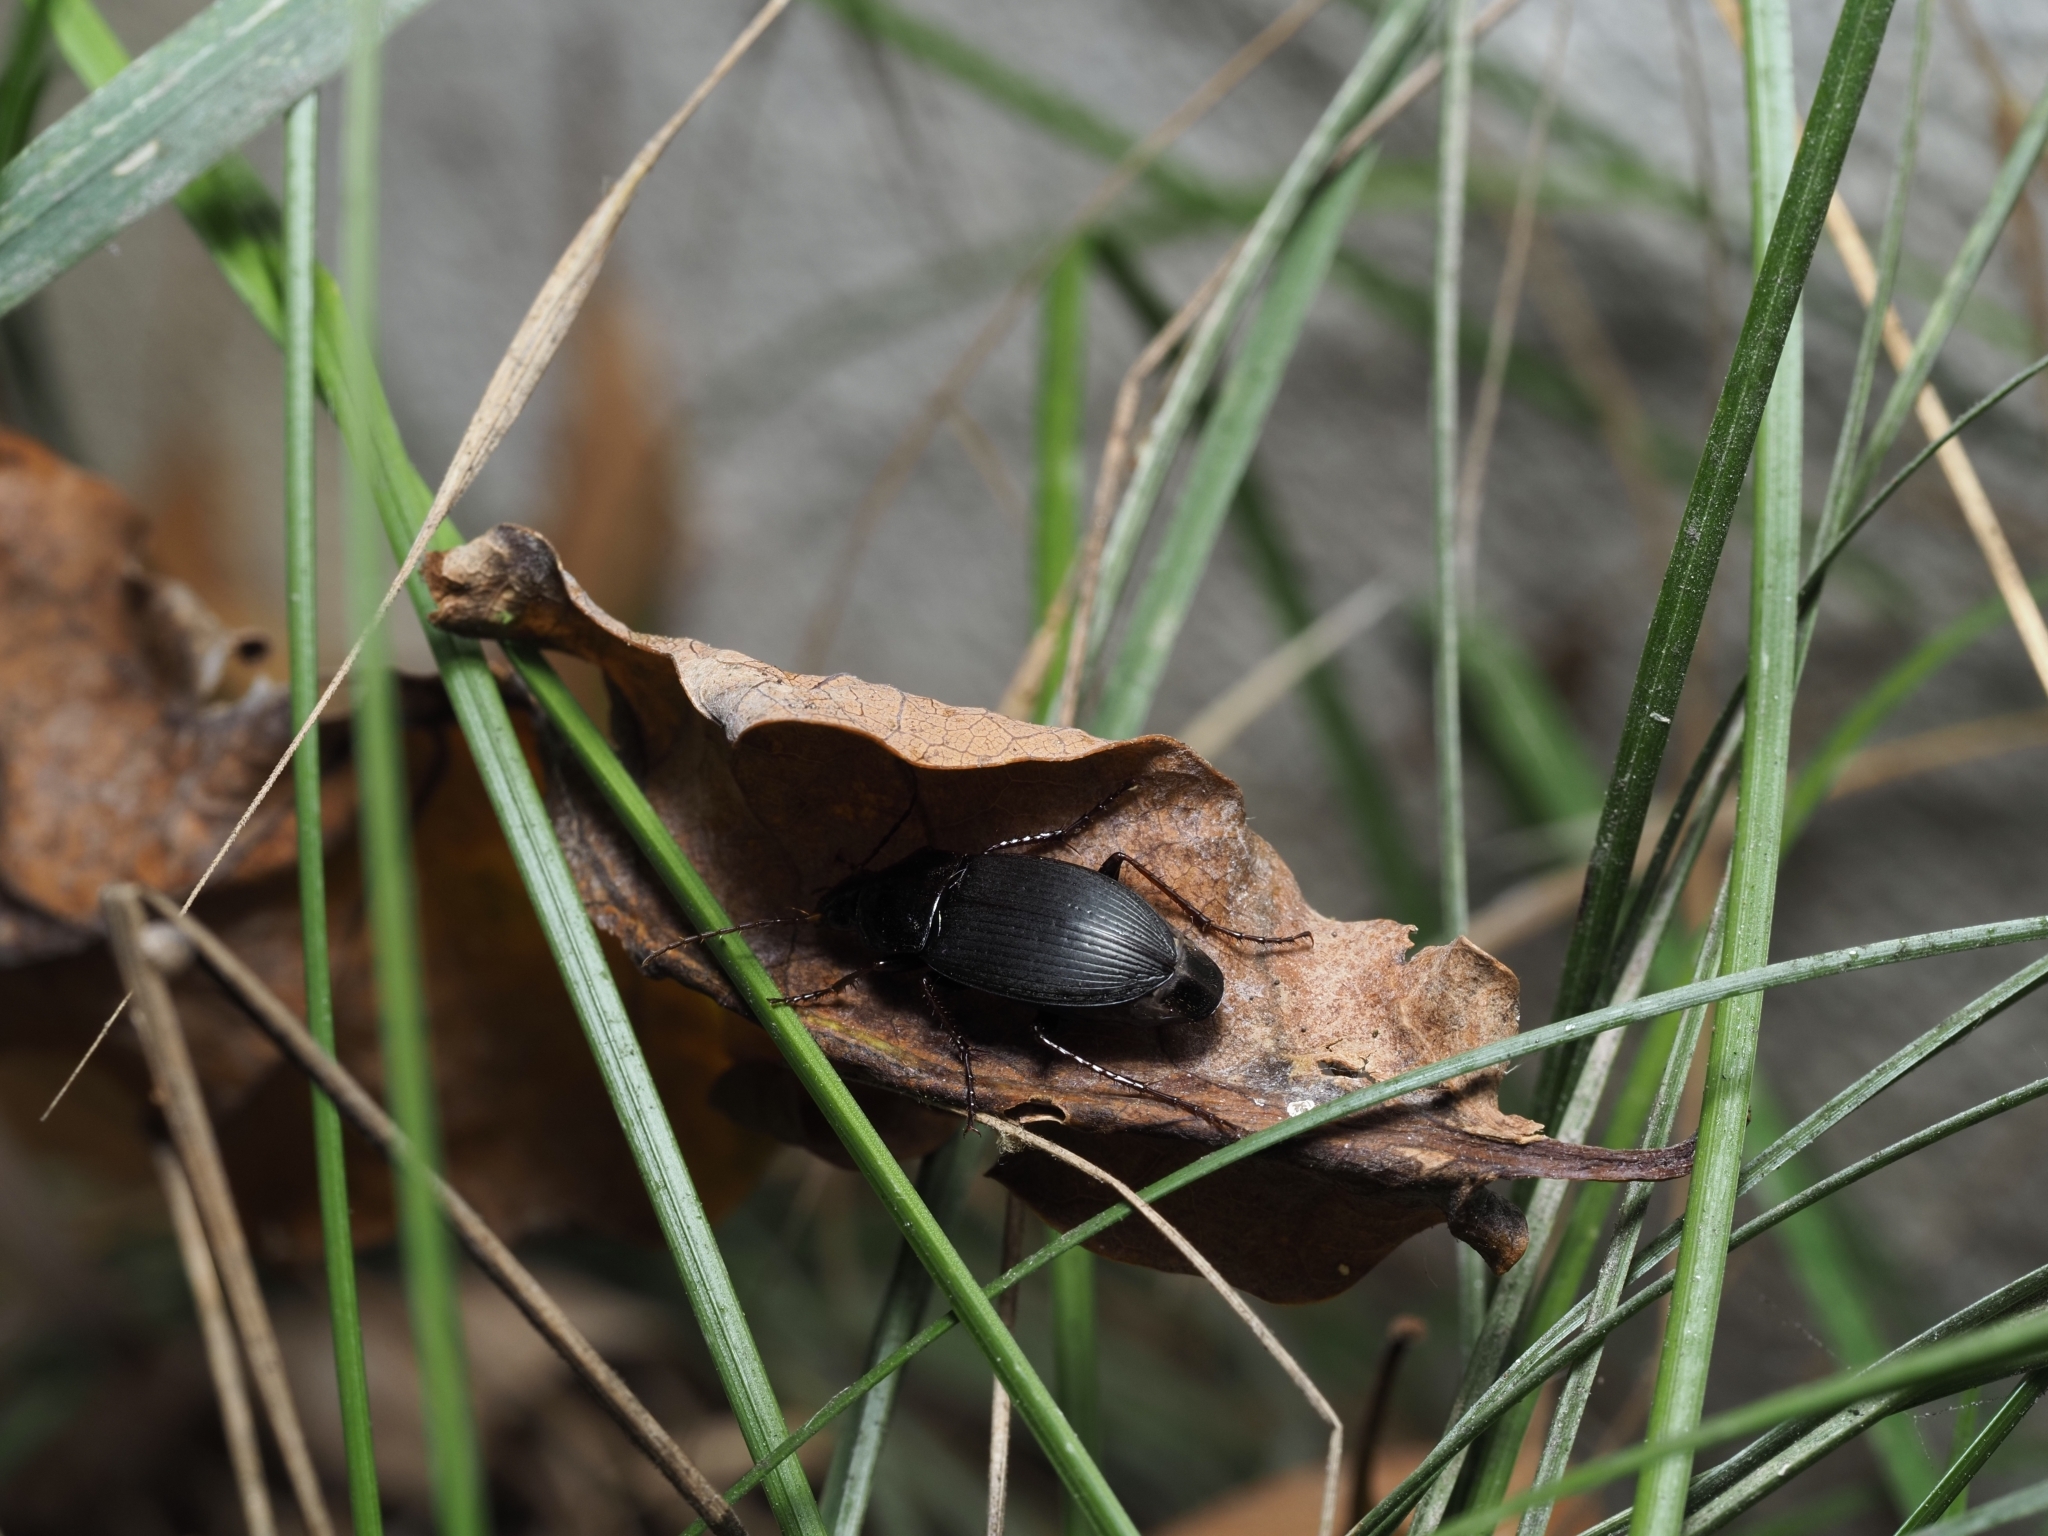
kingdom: Animalia
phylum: Arthropoda
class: Insecta
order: Coleoptera
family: Carabidae
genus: Calathus
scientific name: Calathus fuscipes
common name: Dark-footed harp ground beetle
